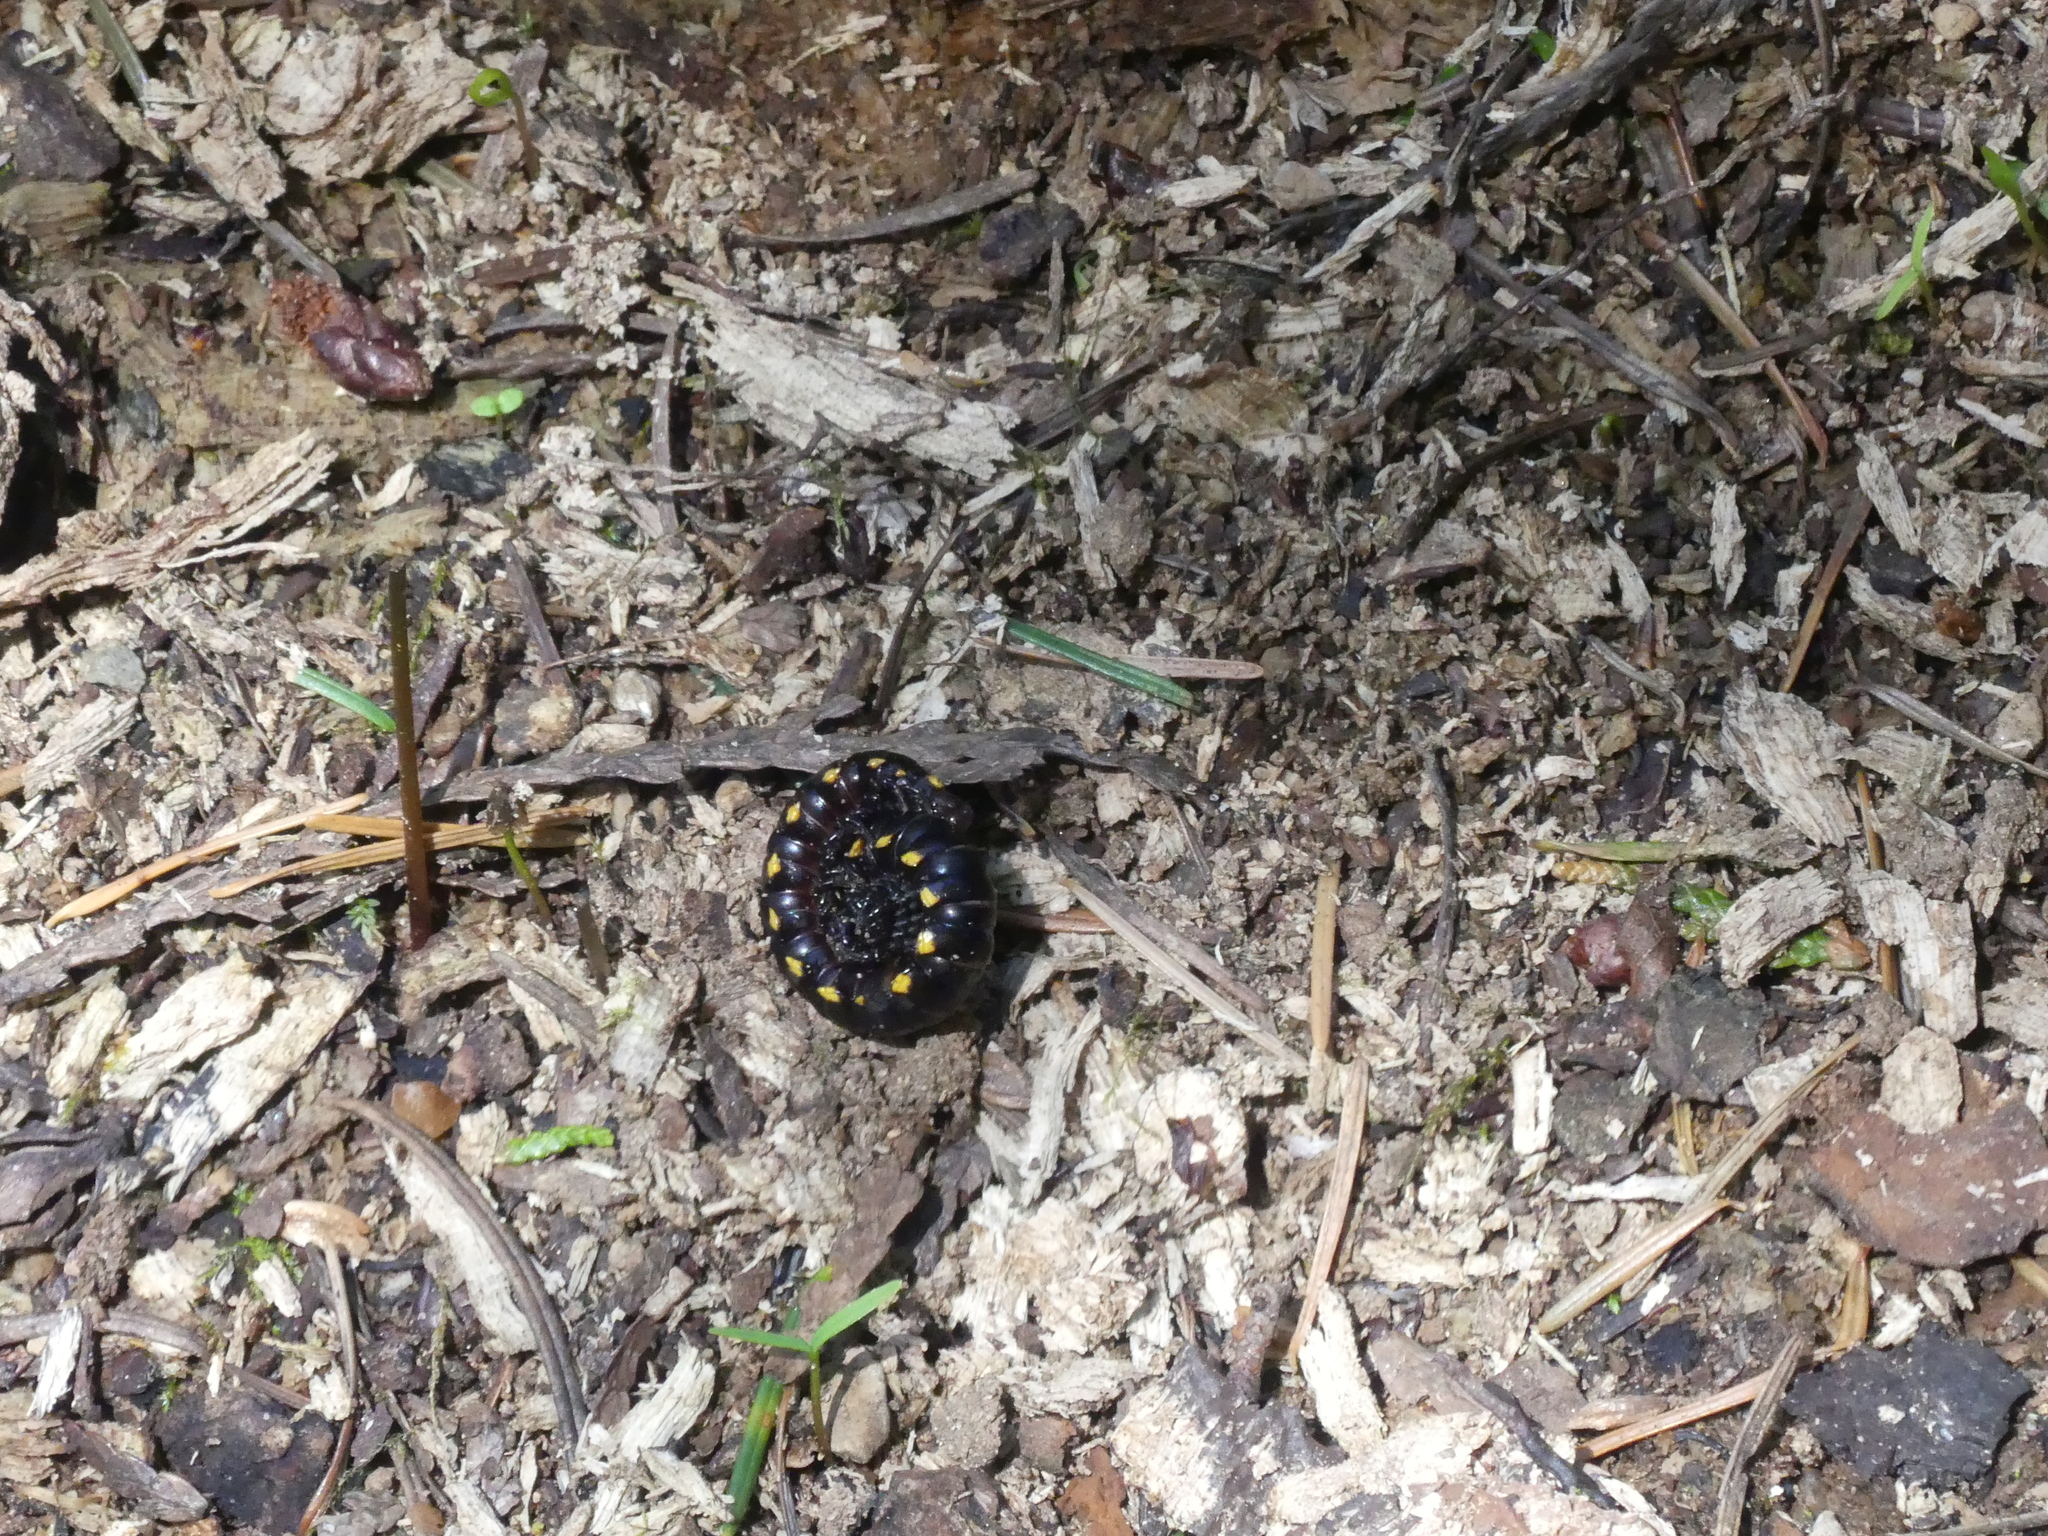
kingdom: Animalia
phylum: Arthropoda
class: Diplopoda
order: Polydesmida
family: Xystodesmidae
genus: Harpaphe
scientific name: Harpaphe haydeniana
